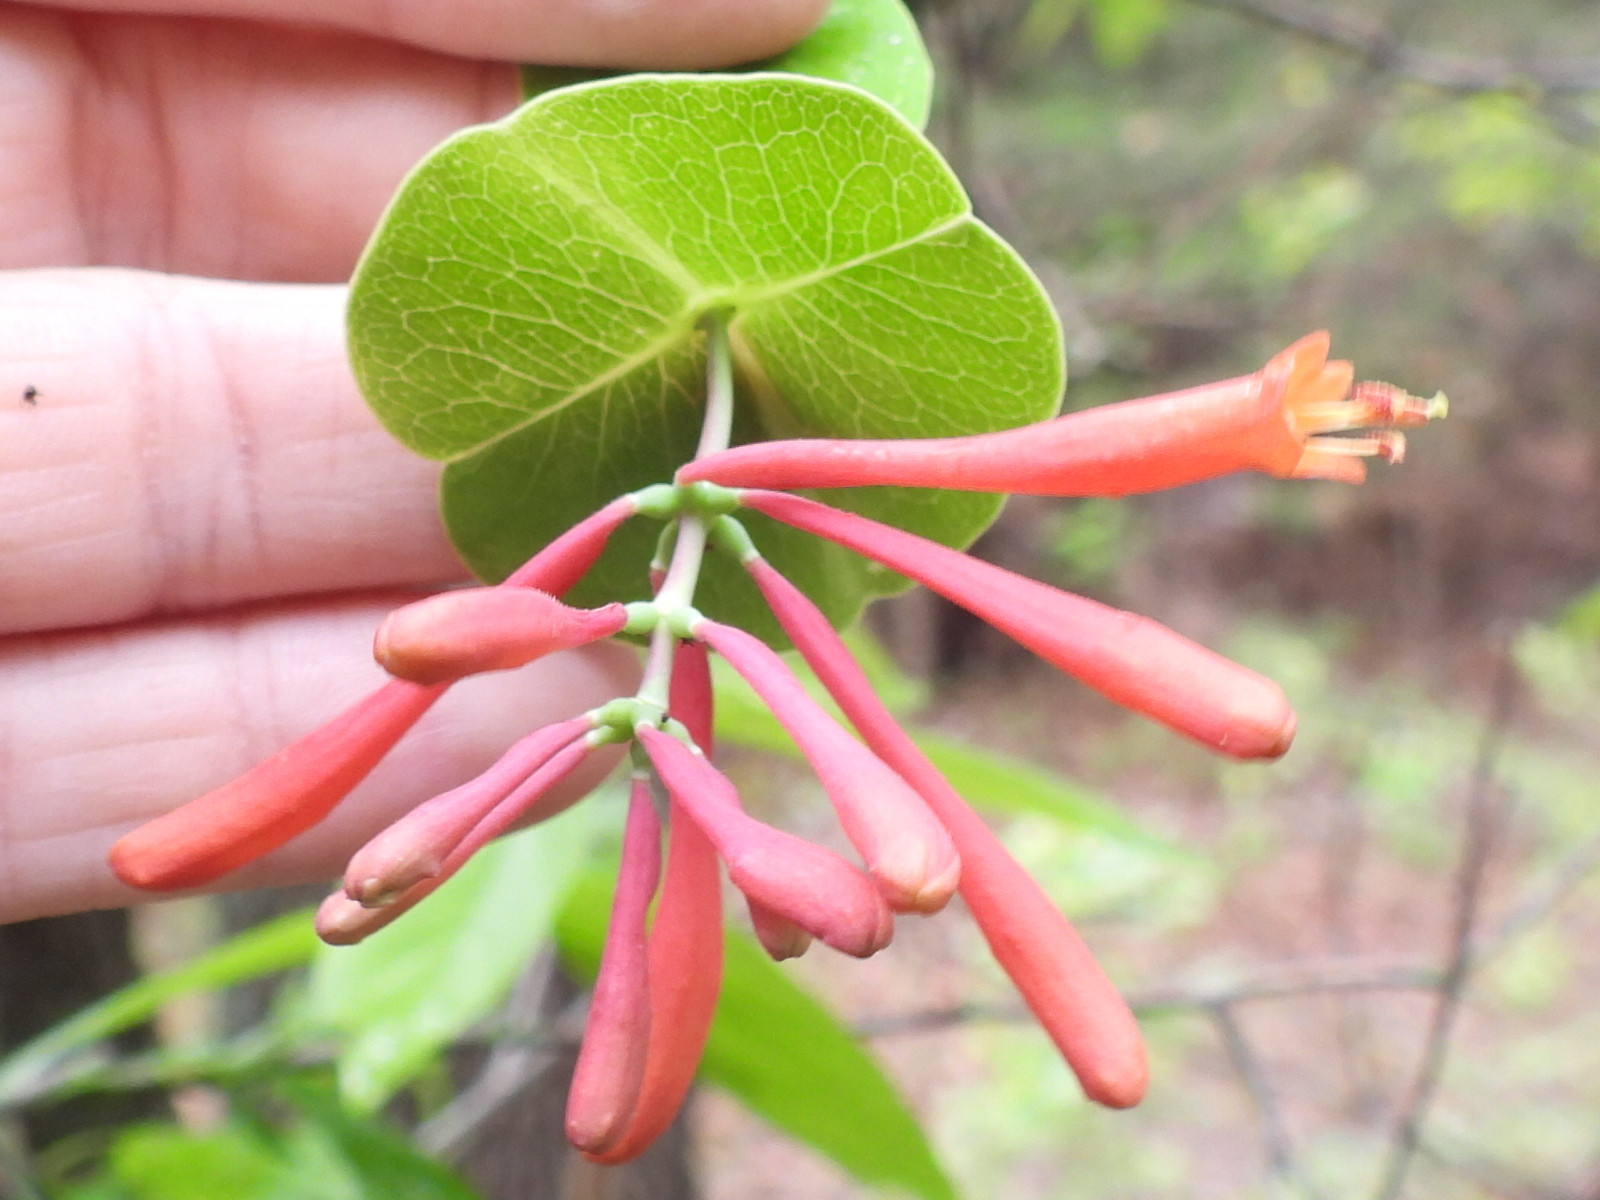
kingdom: Plantae
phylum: Tracheophyta
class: Magnoliopsida
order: Dipsacales
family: Caprifoliaceae
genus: Lonicera
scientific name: Lonicera sempervirens
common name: Coral honeysuckle
